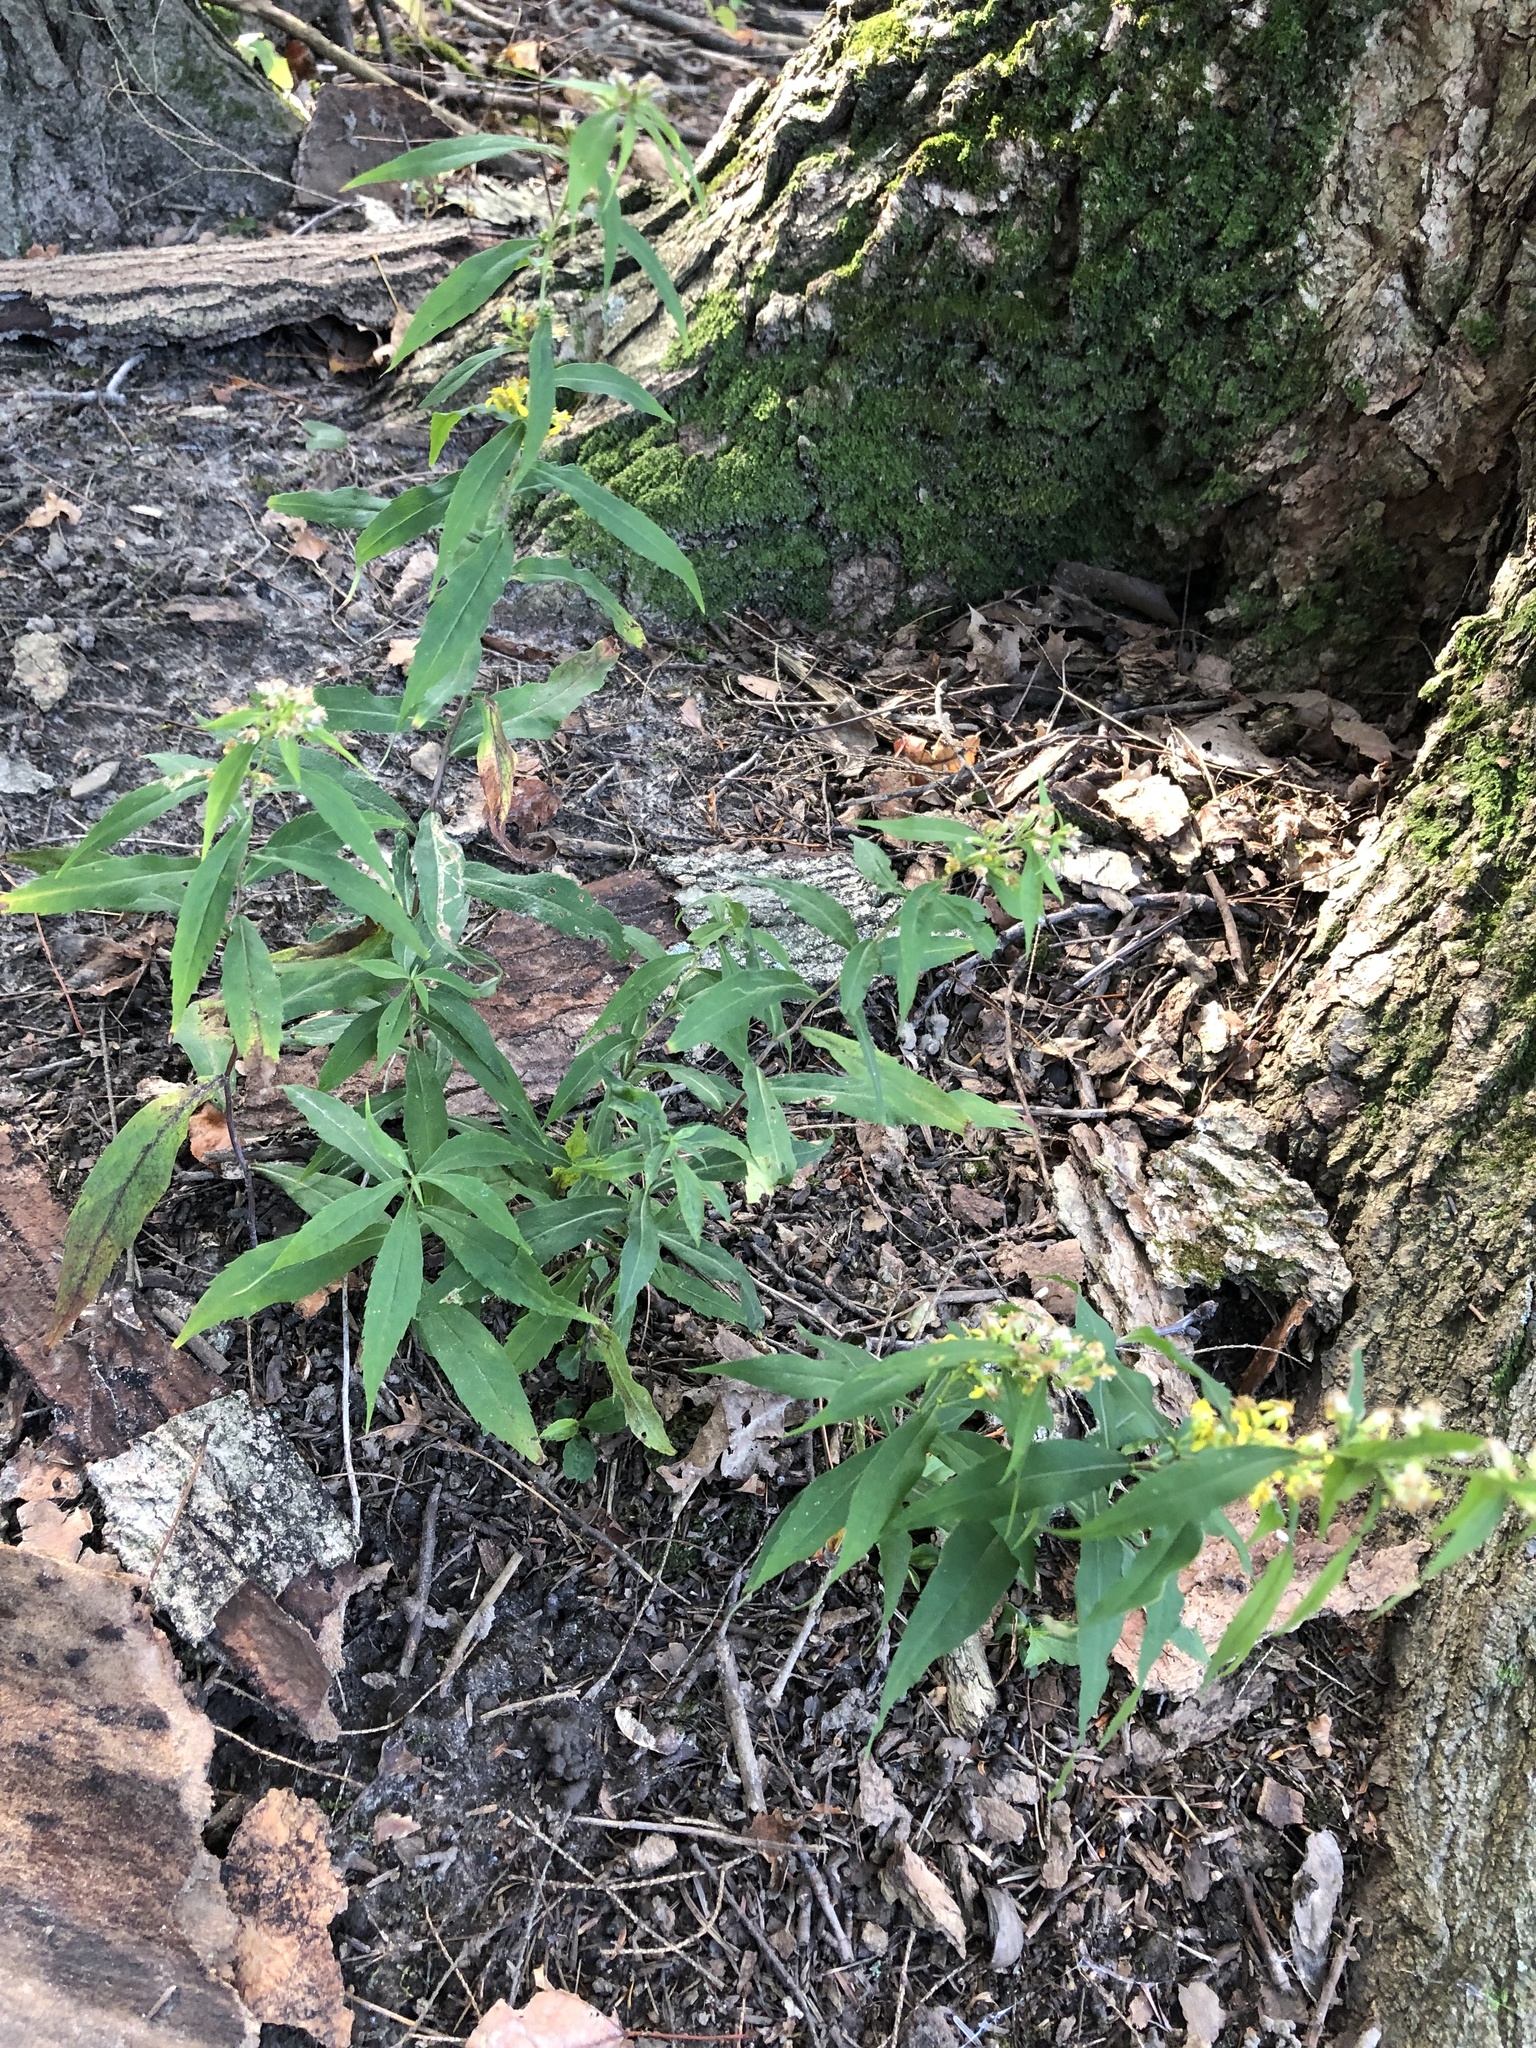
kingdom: Plantae
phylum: Tracheophyta
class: Magnoliopsida
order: Asterales
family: Asteraceae
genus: Solidago
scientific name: Solidago caesia
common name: Woodland goldenrod
